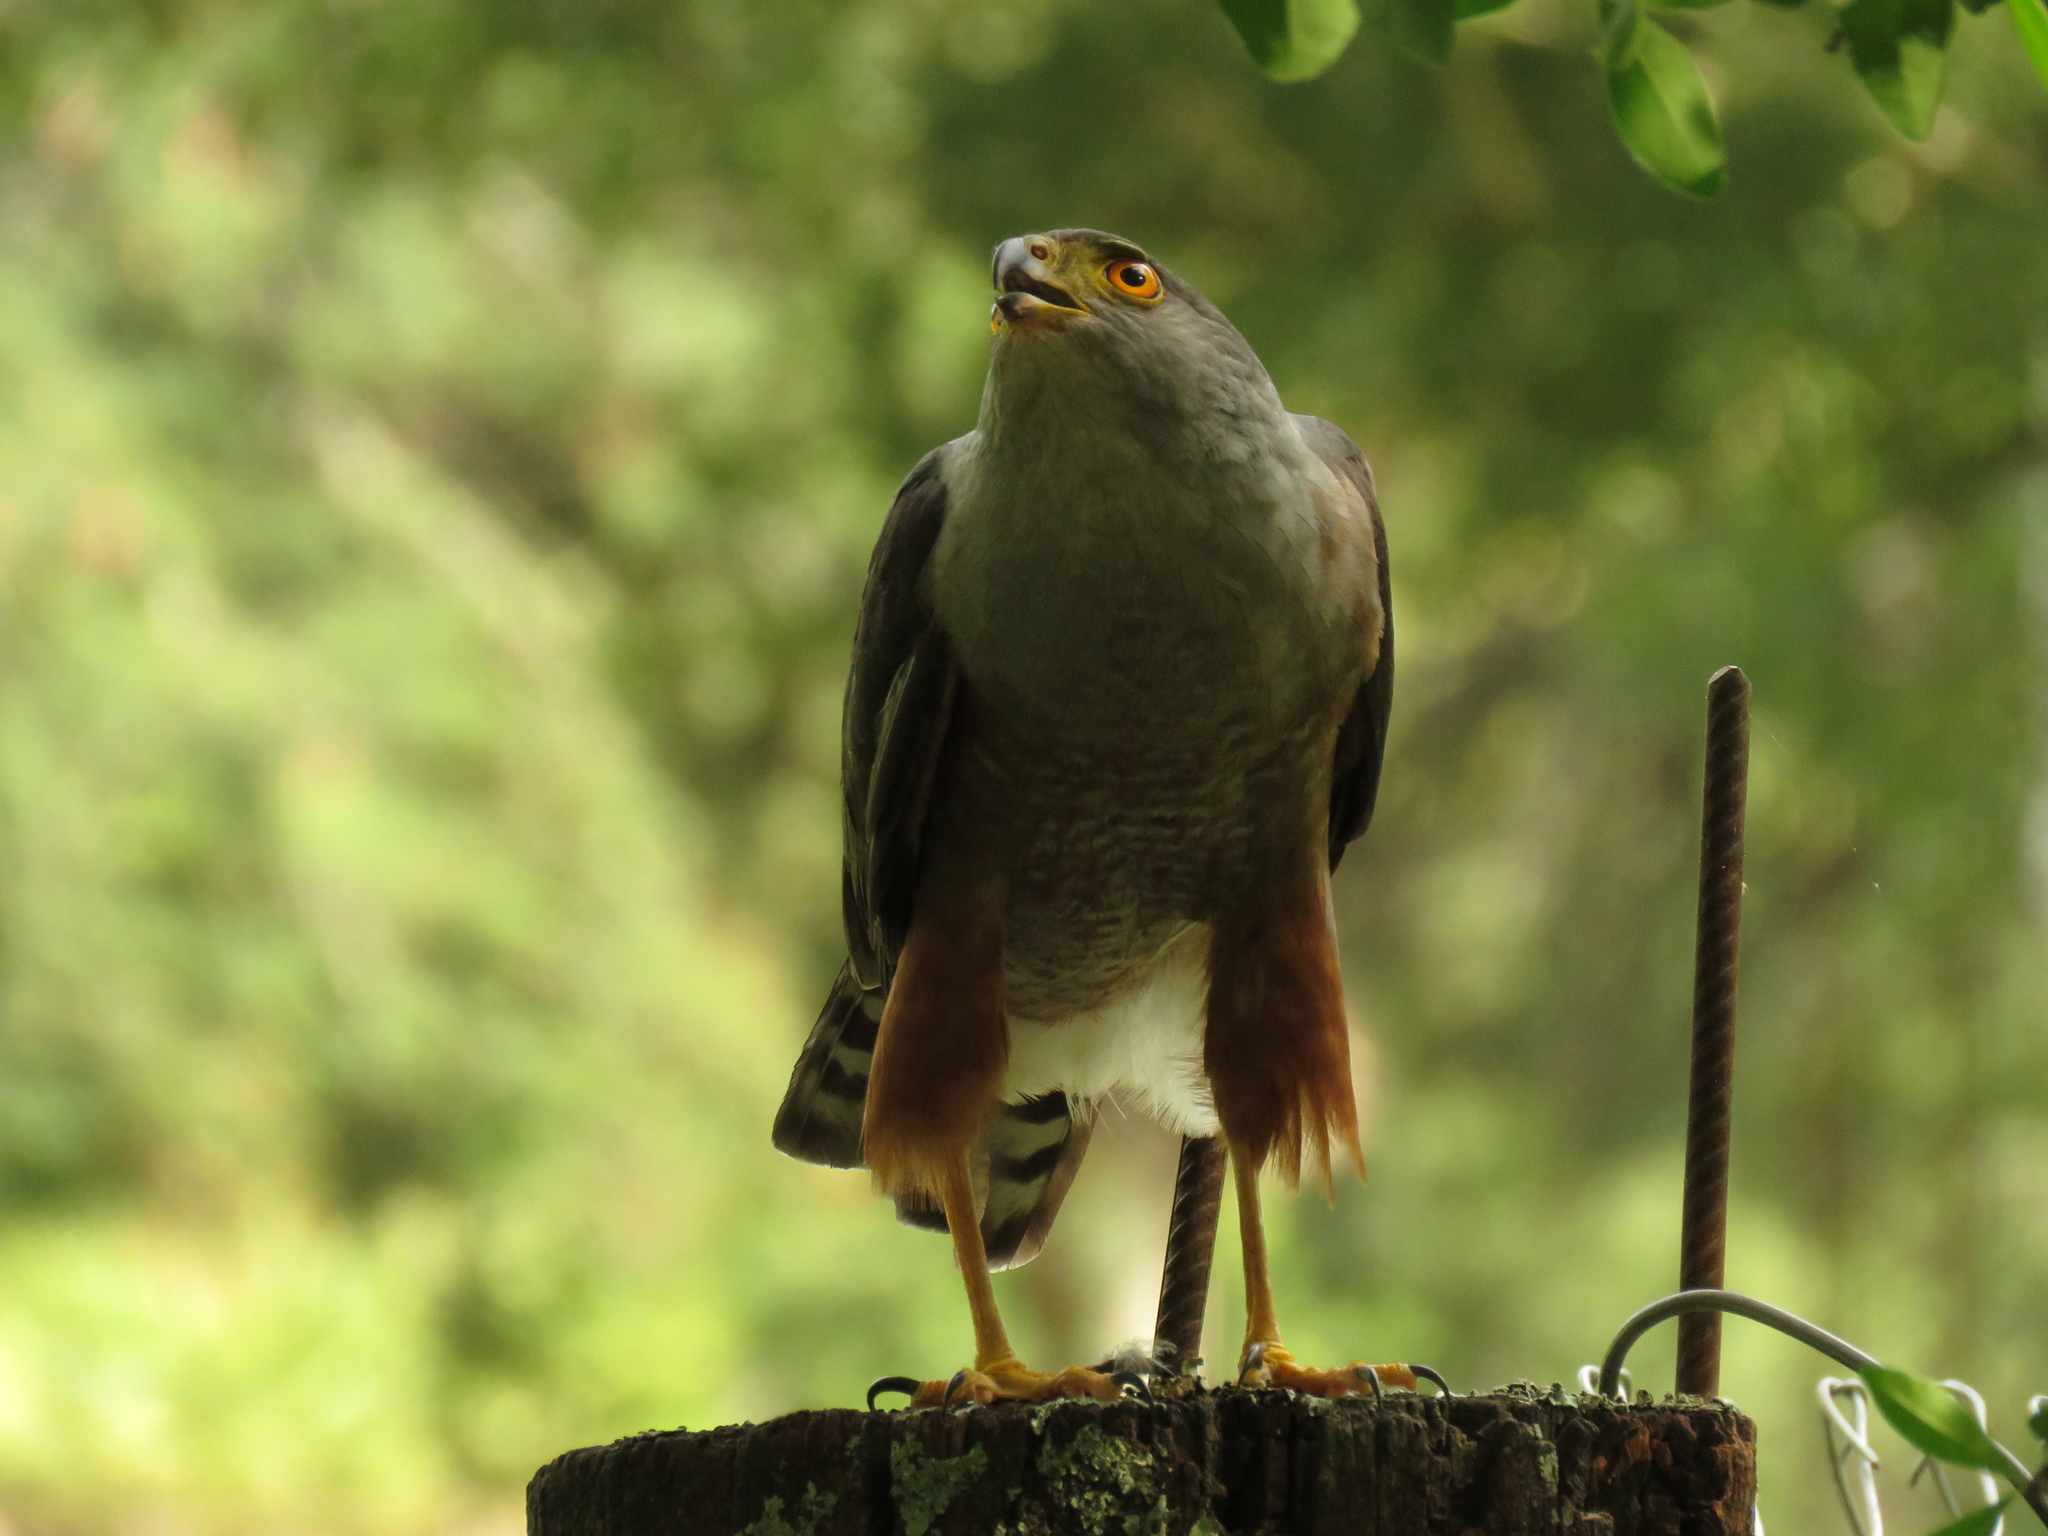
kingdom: Animalia
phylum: Chordata
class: Aves
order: Accipitriformes
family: Accipitridae
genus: Accipiter
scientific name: Accipiter bicolor
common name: Bicolored hawk
